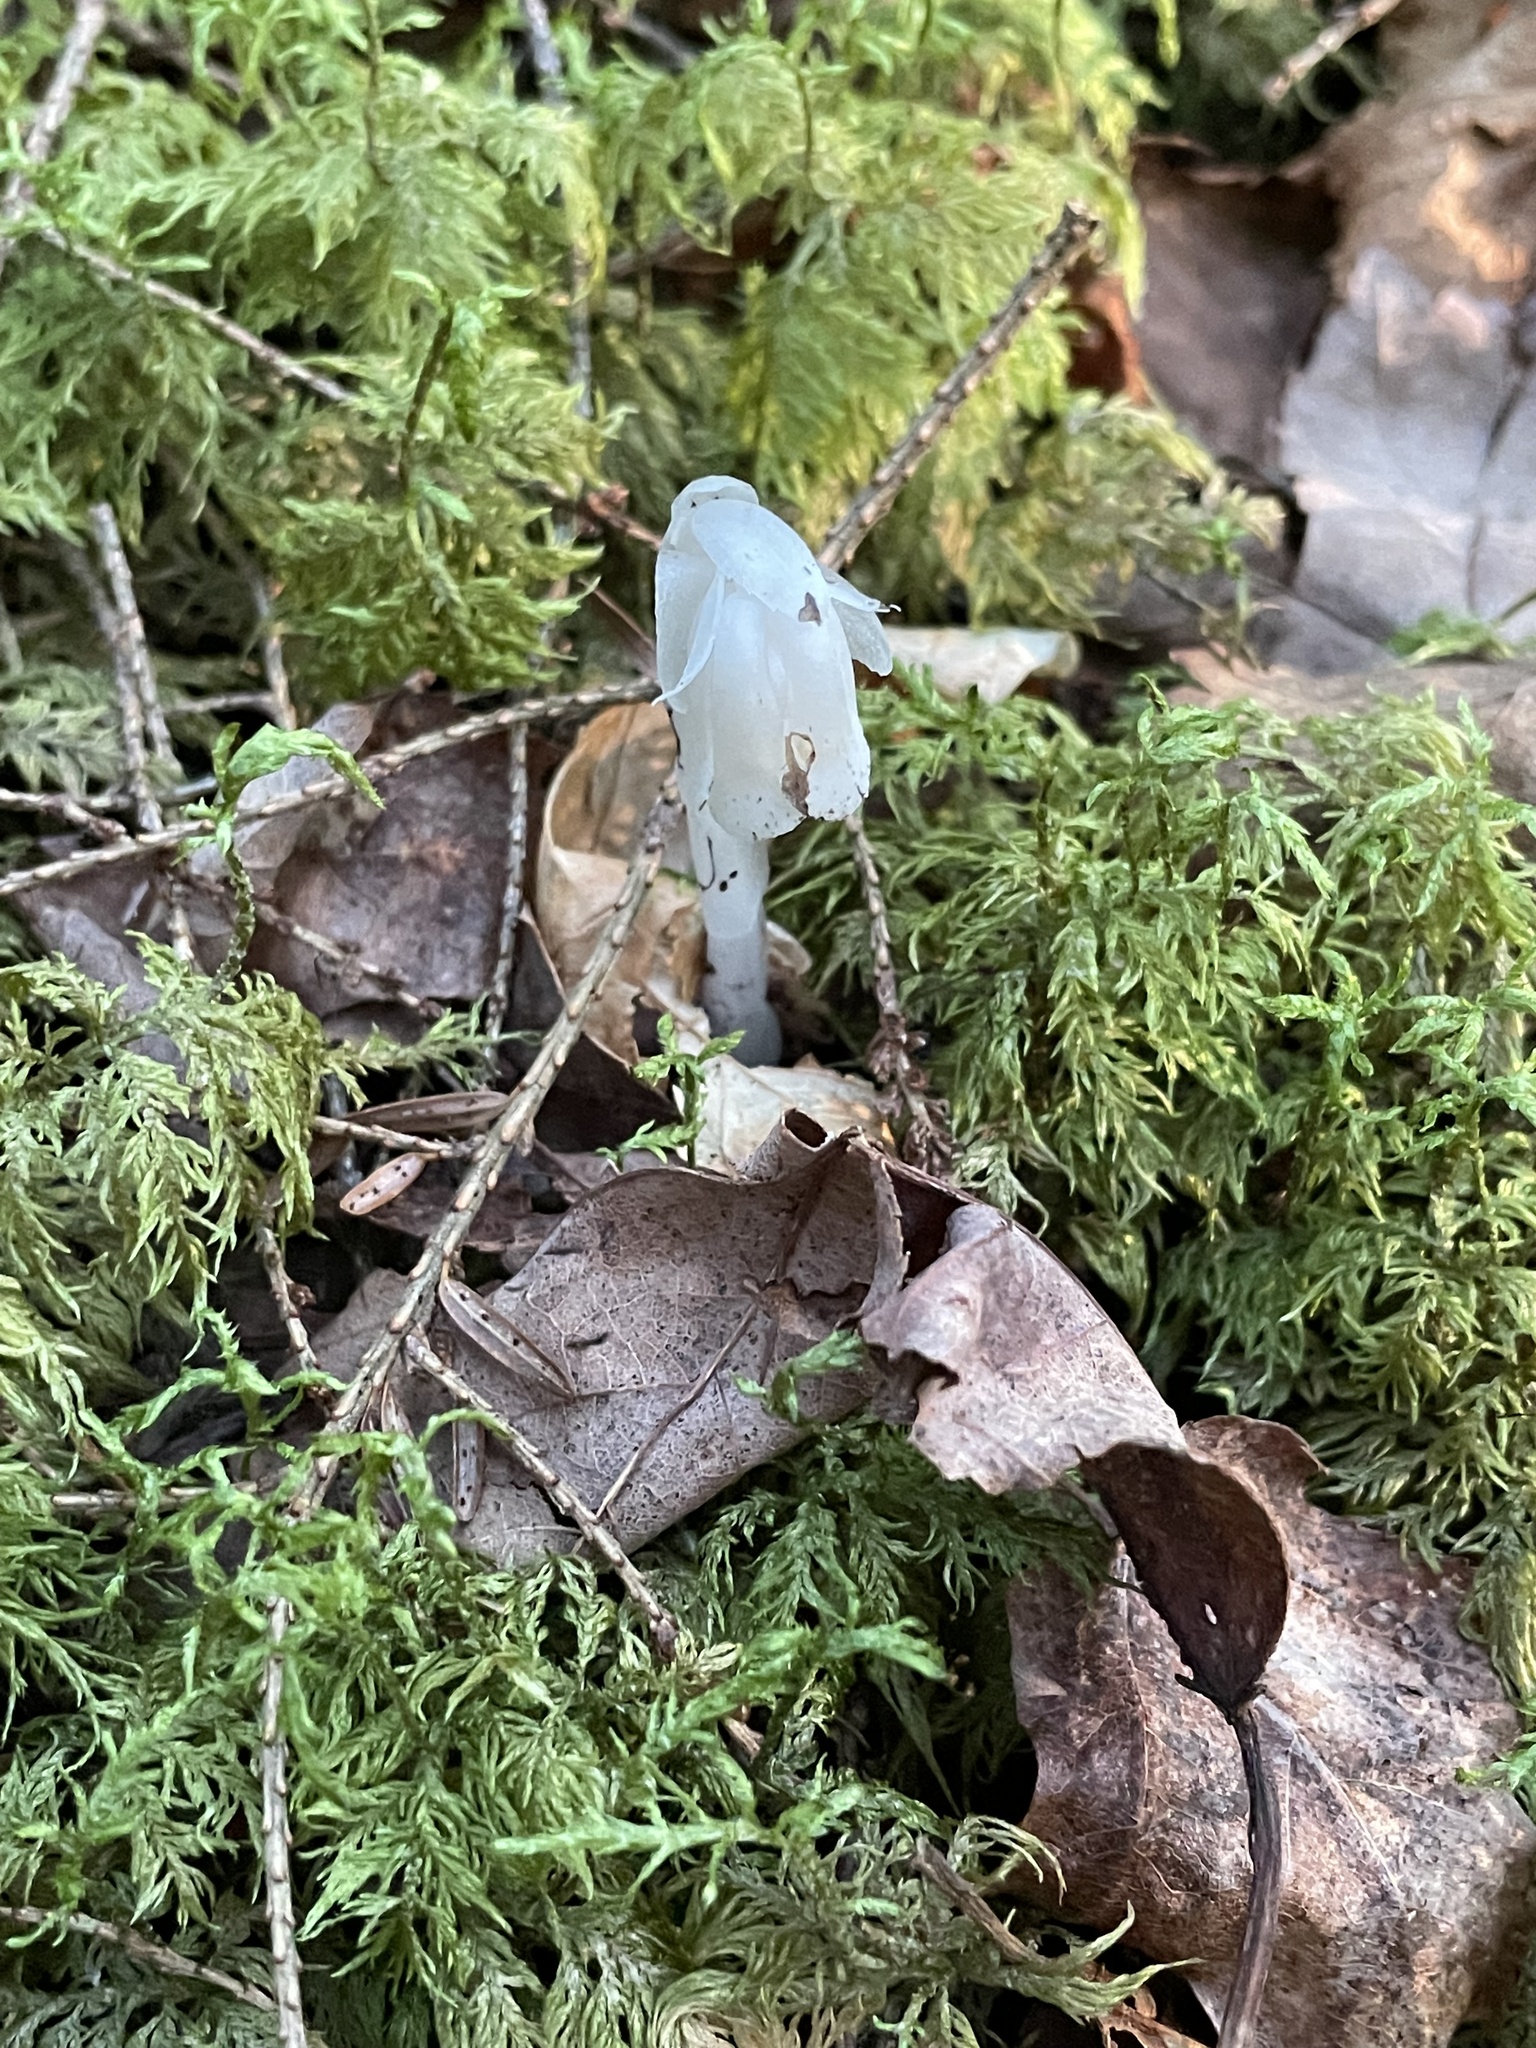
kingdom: Plantae
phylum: Tracheophyta
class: Magnoliopsida
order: Ericales
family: Ericaceae
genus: Monotropa
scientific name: Monotropa uniflora
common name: Convulsion root
